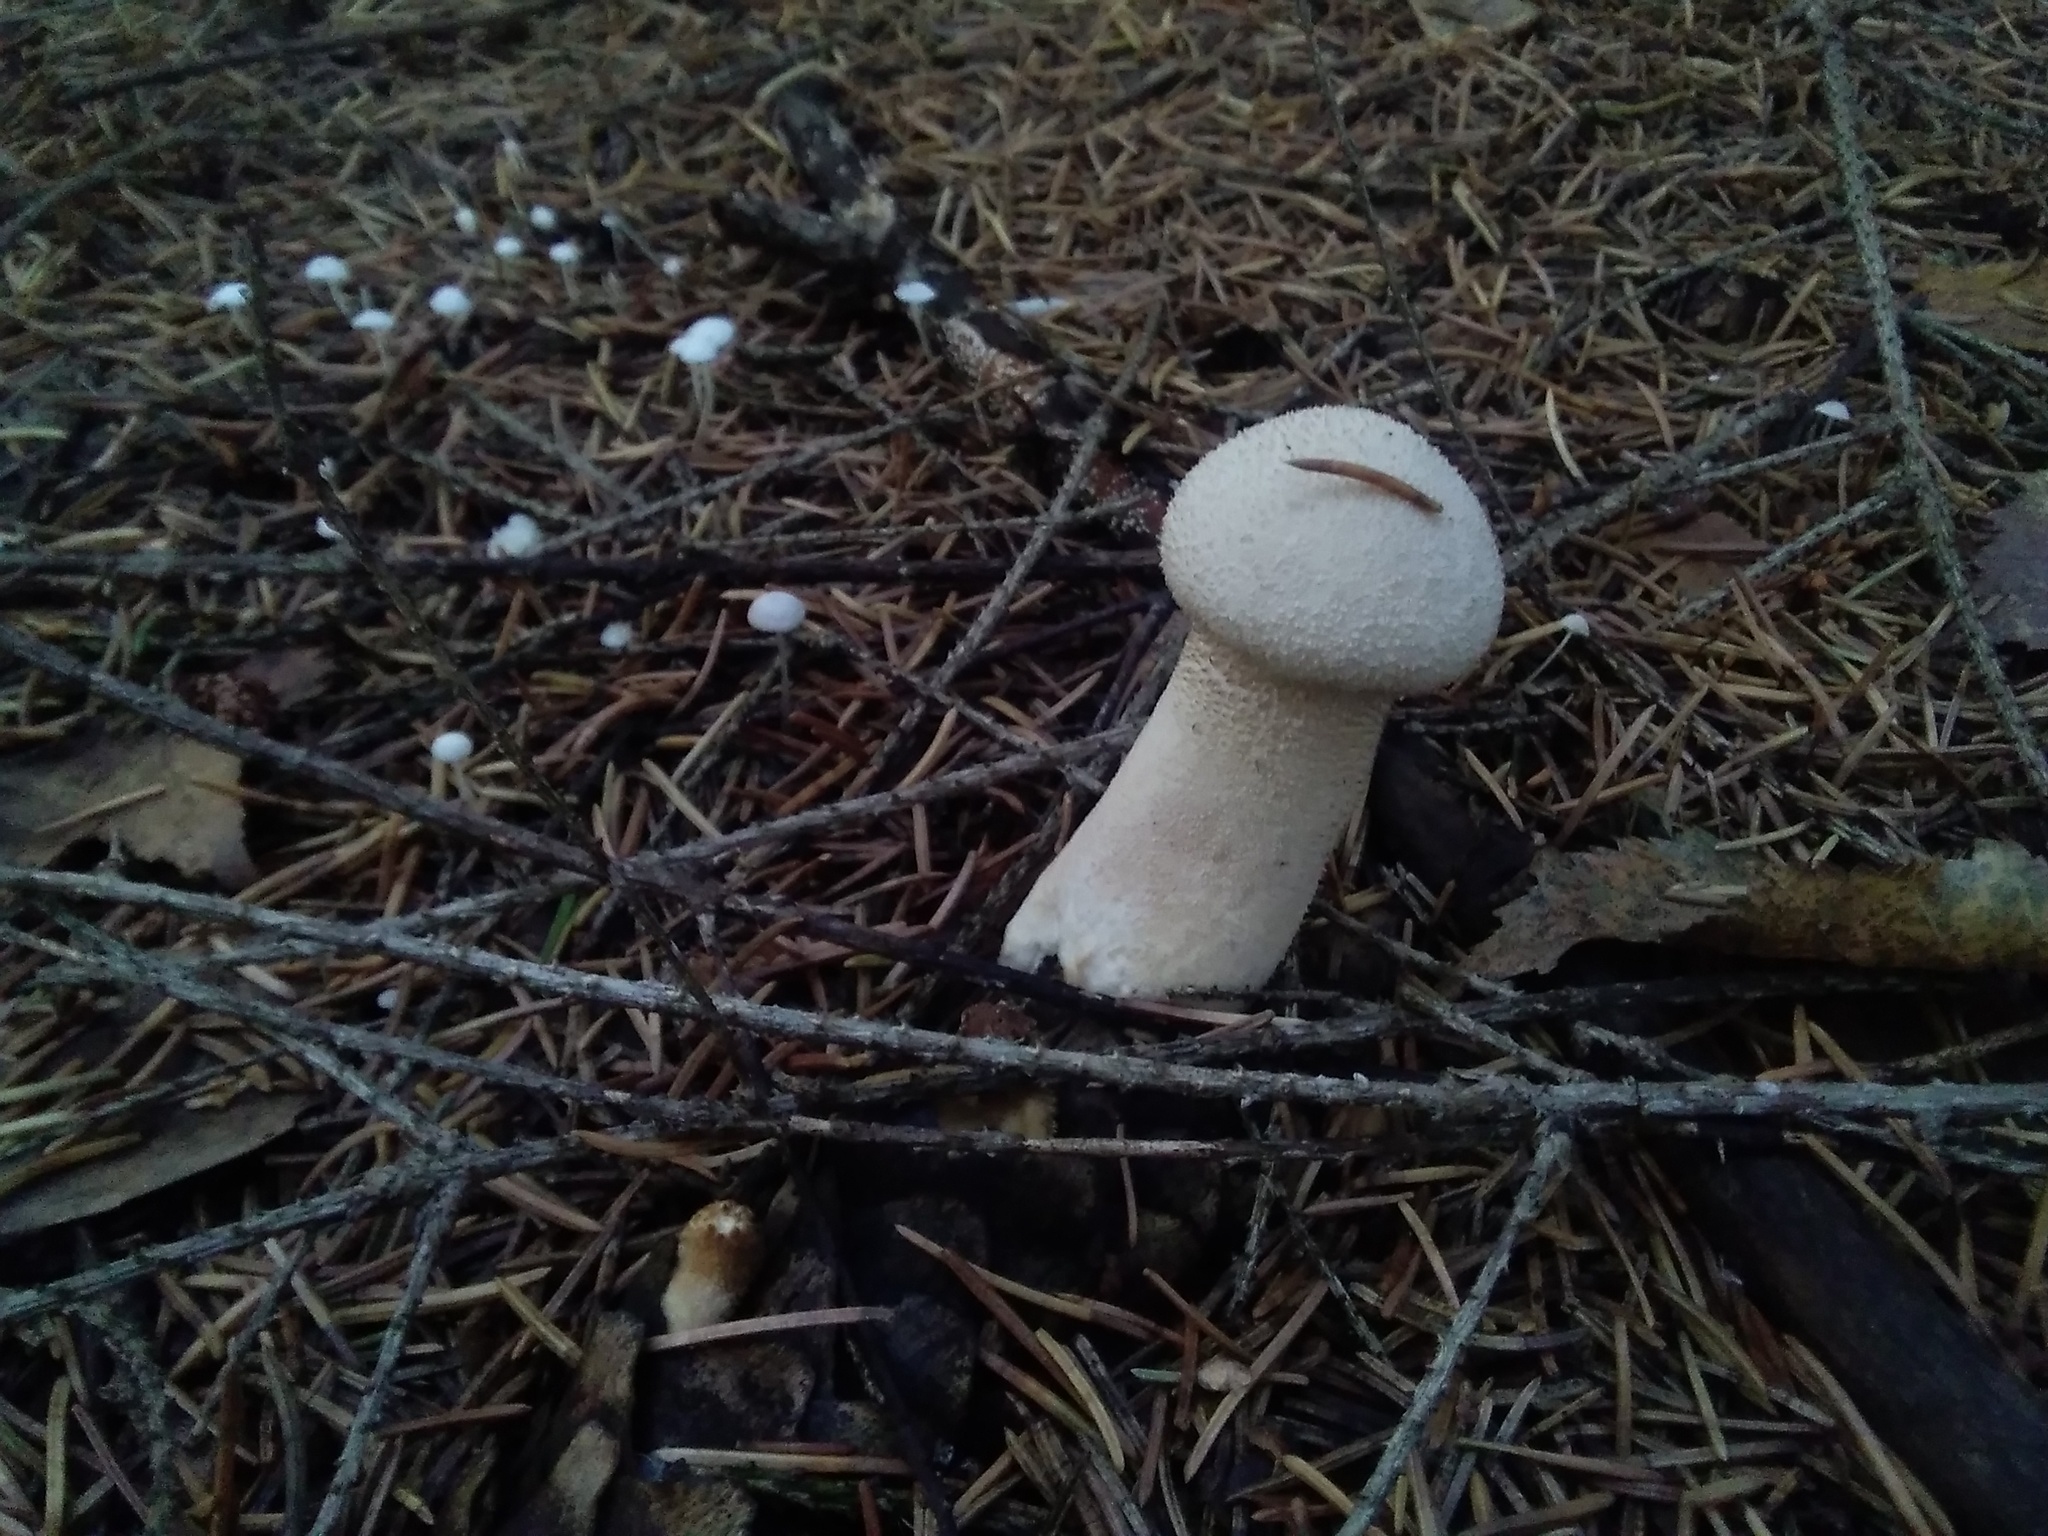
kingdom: Fungi
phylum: Basidiomycota
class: Agaricomycetes
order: Agaricales
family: Lycoperdaceae
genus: Lycoperdon
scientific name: Lycoperdon excipuliforme
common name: Pestle puffball
